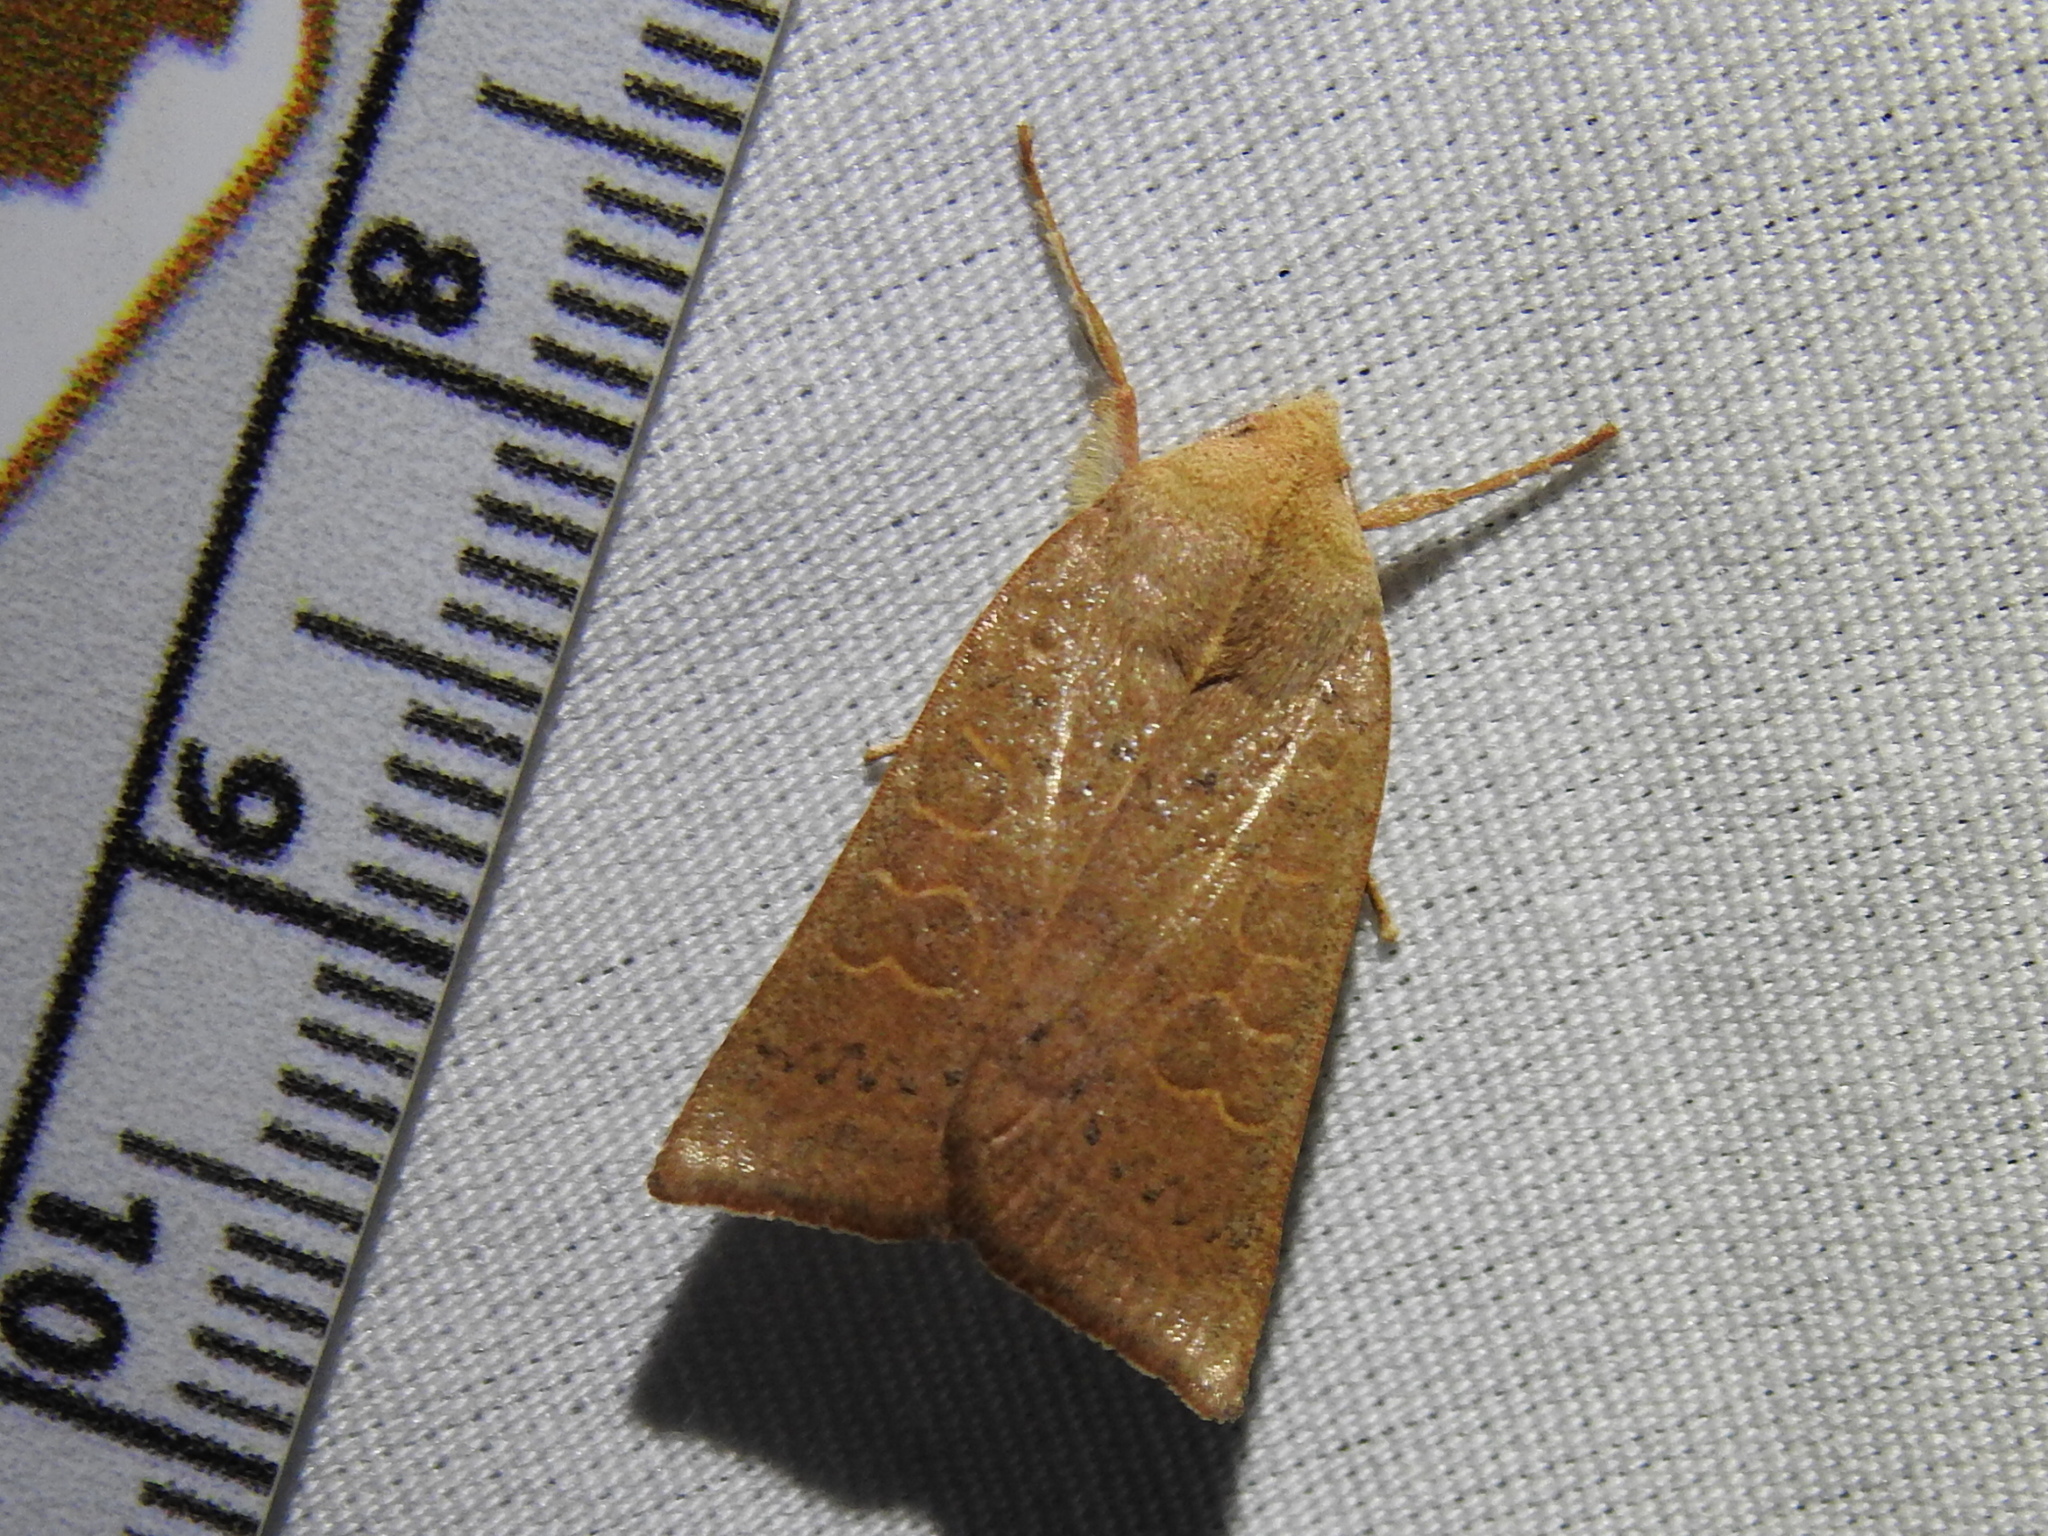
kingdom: Animalia
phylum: Arthropoda
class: Insecta
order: Lepidoptera
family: Noctuidae
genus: Xystopeplus
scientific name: Xystopeplus rufago
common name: Red-winged sallow
